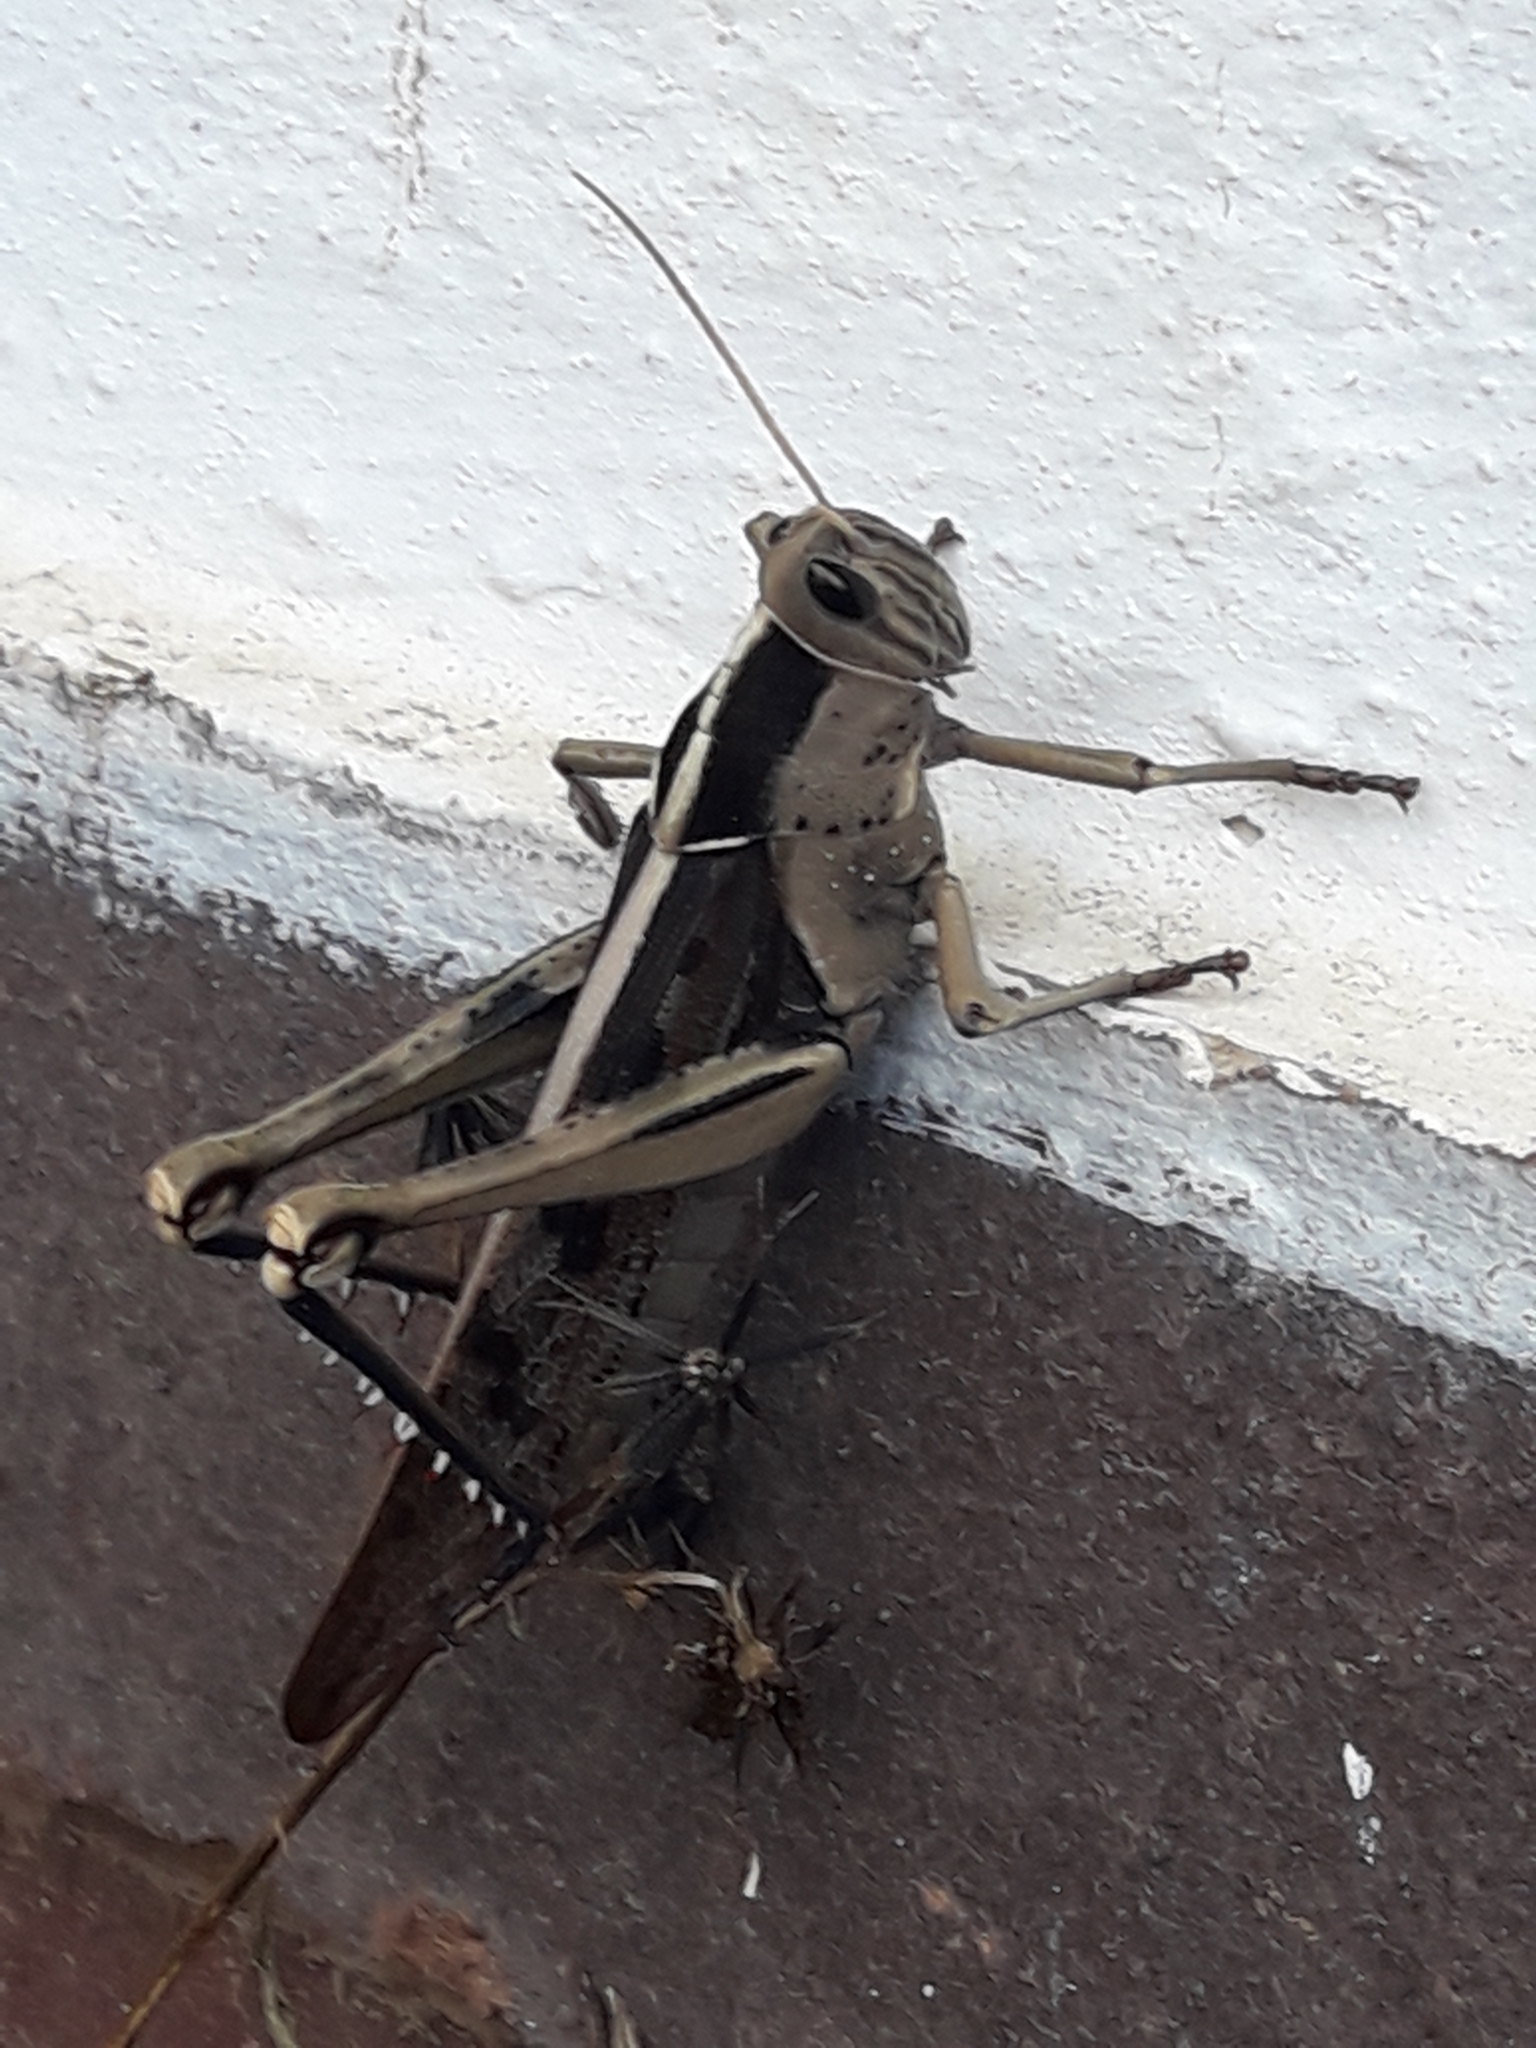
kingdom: Animalia
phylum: Arthropoda
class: Insecta
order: Orthoptera
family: Acrididae
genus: Acanthacris
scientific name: Acanthacris ruficornis
